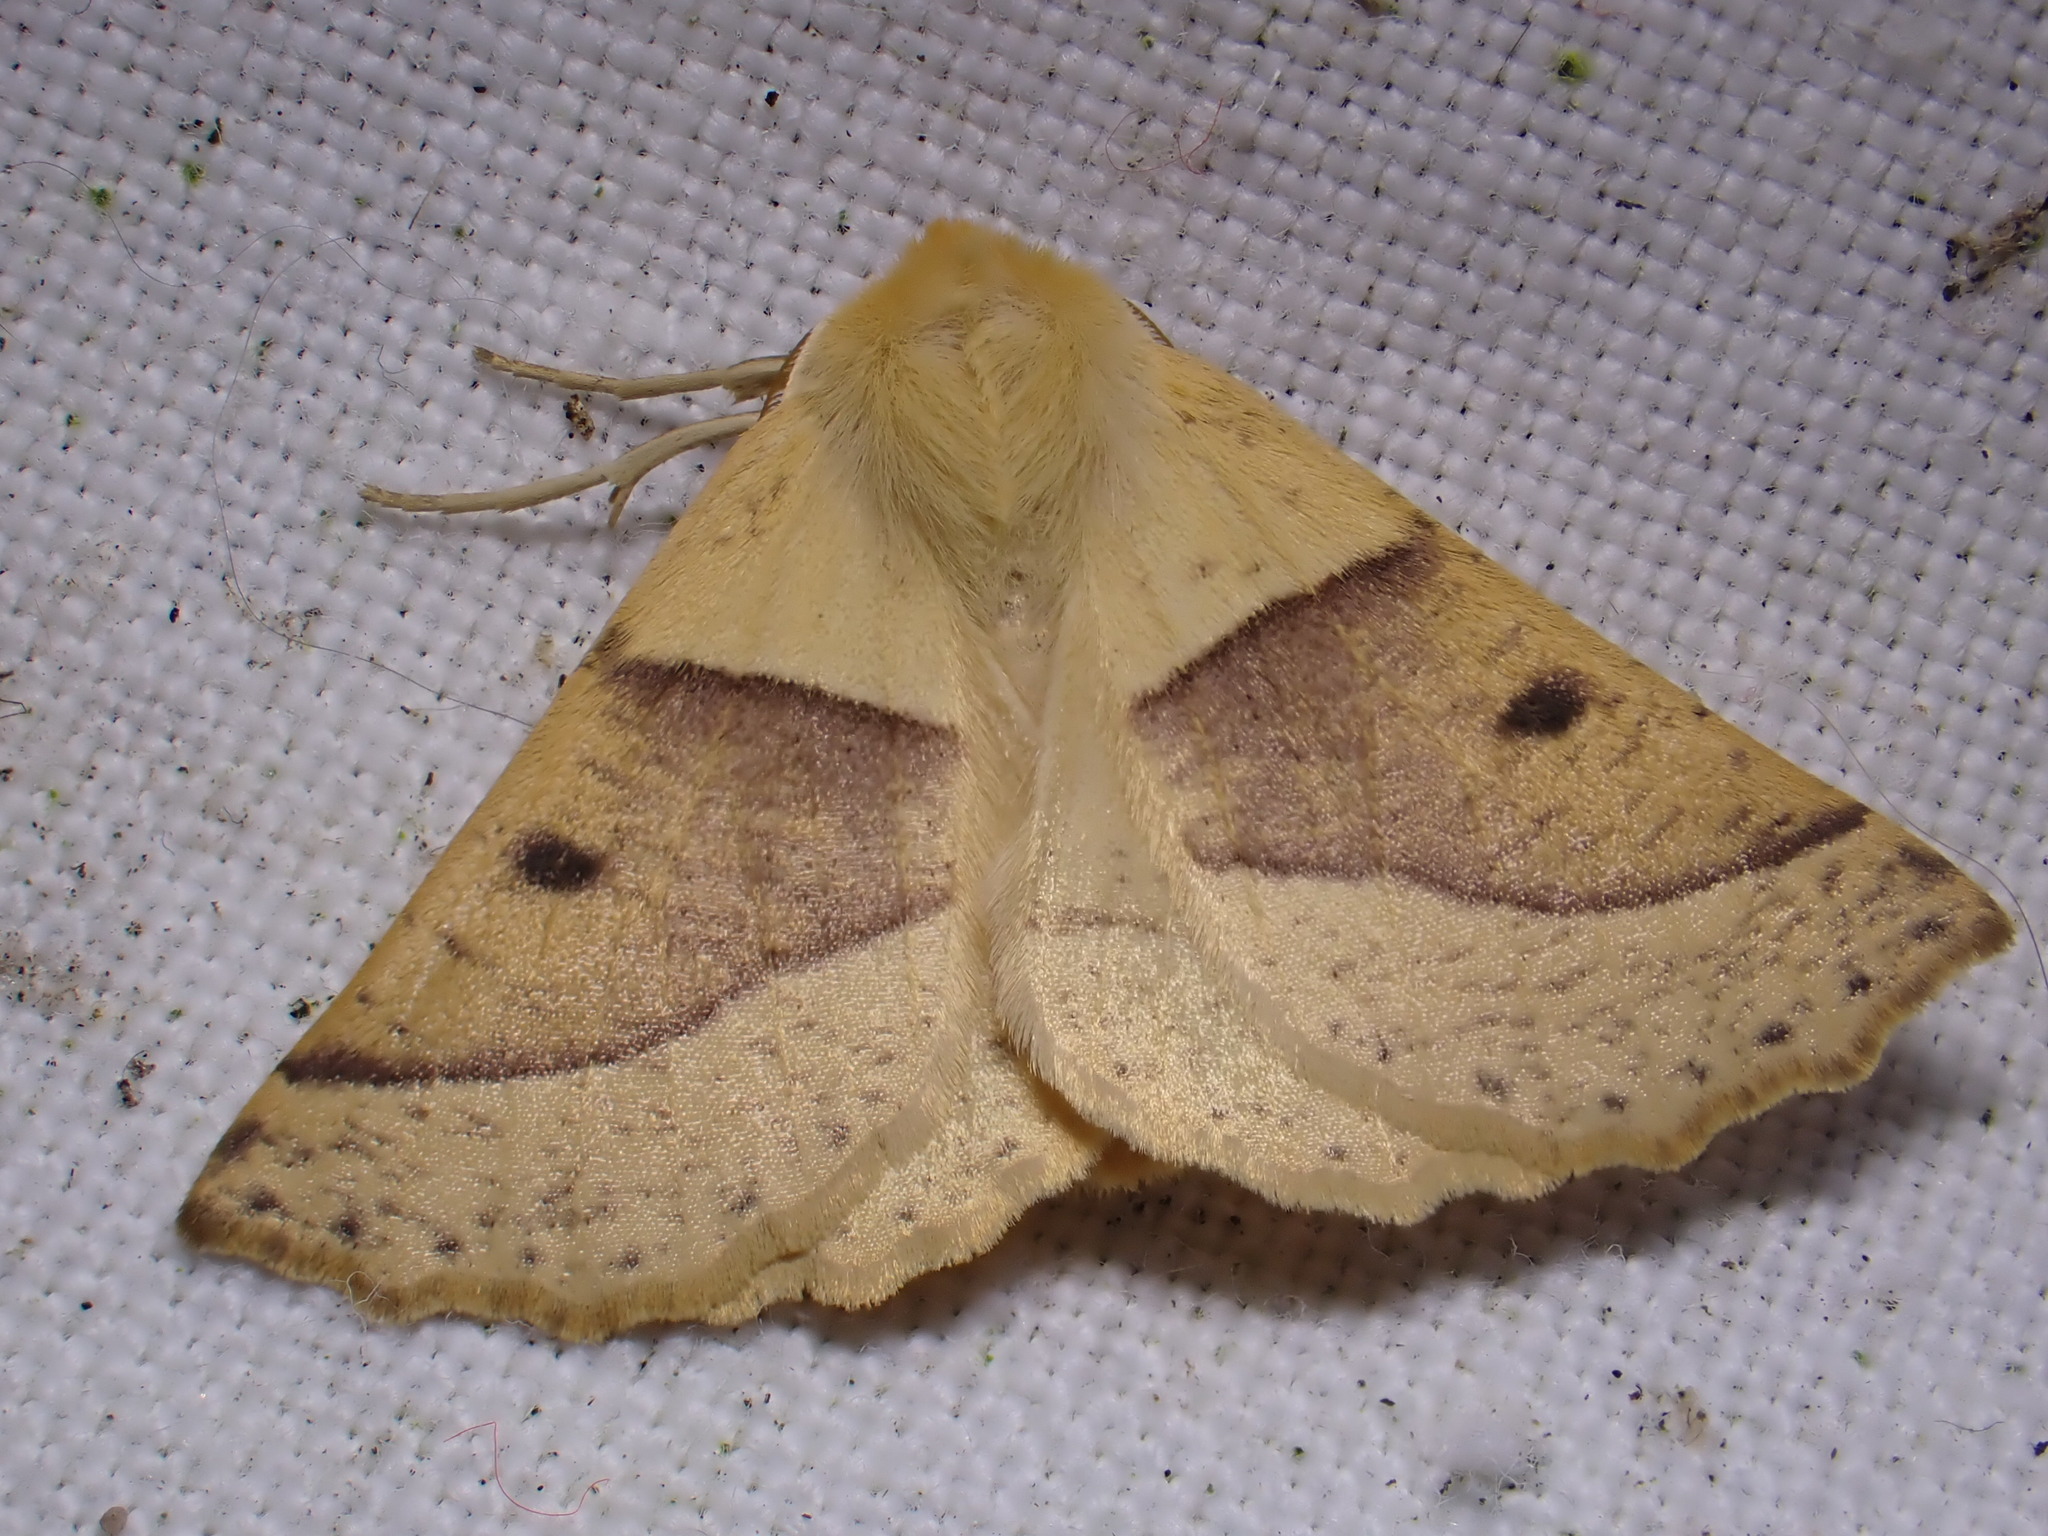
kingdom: Animalia
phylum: Arthropoda
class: Insecta
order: Lepidoptera
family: Geometridae
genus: Crocallis
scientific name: Crocallis elinguaria
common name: Scalloped oak
